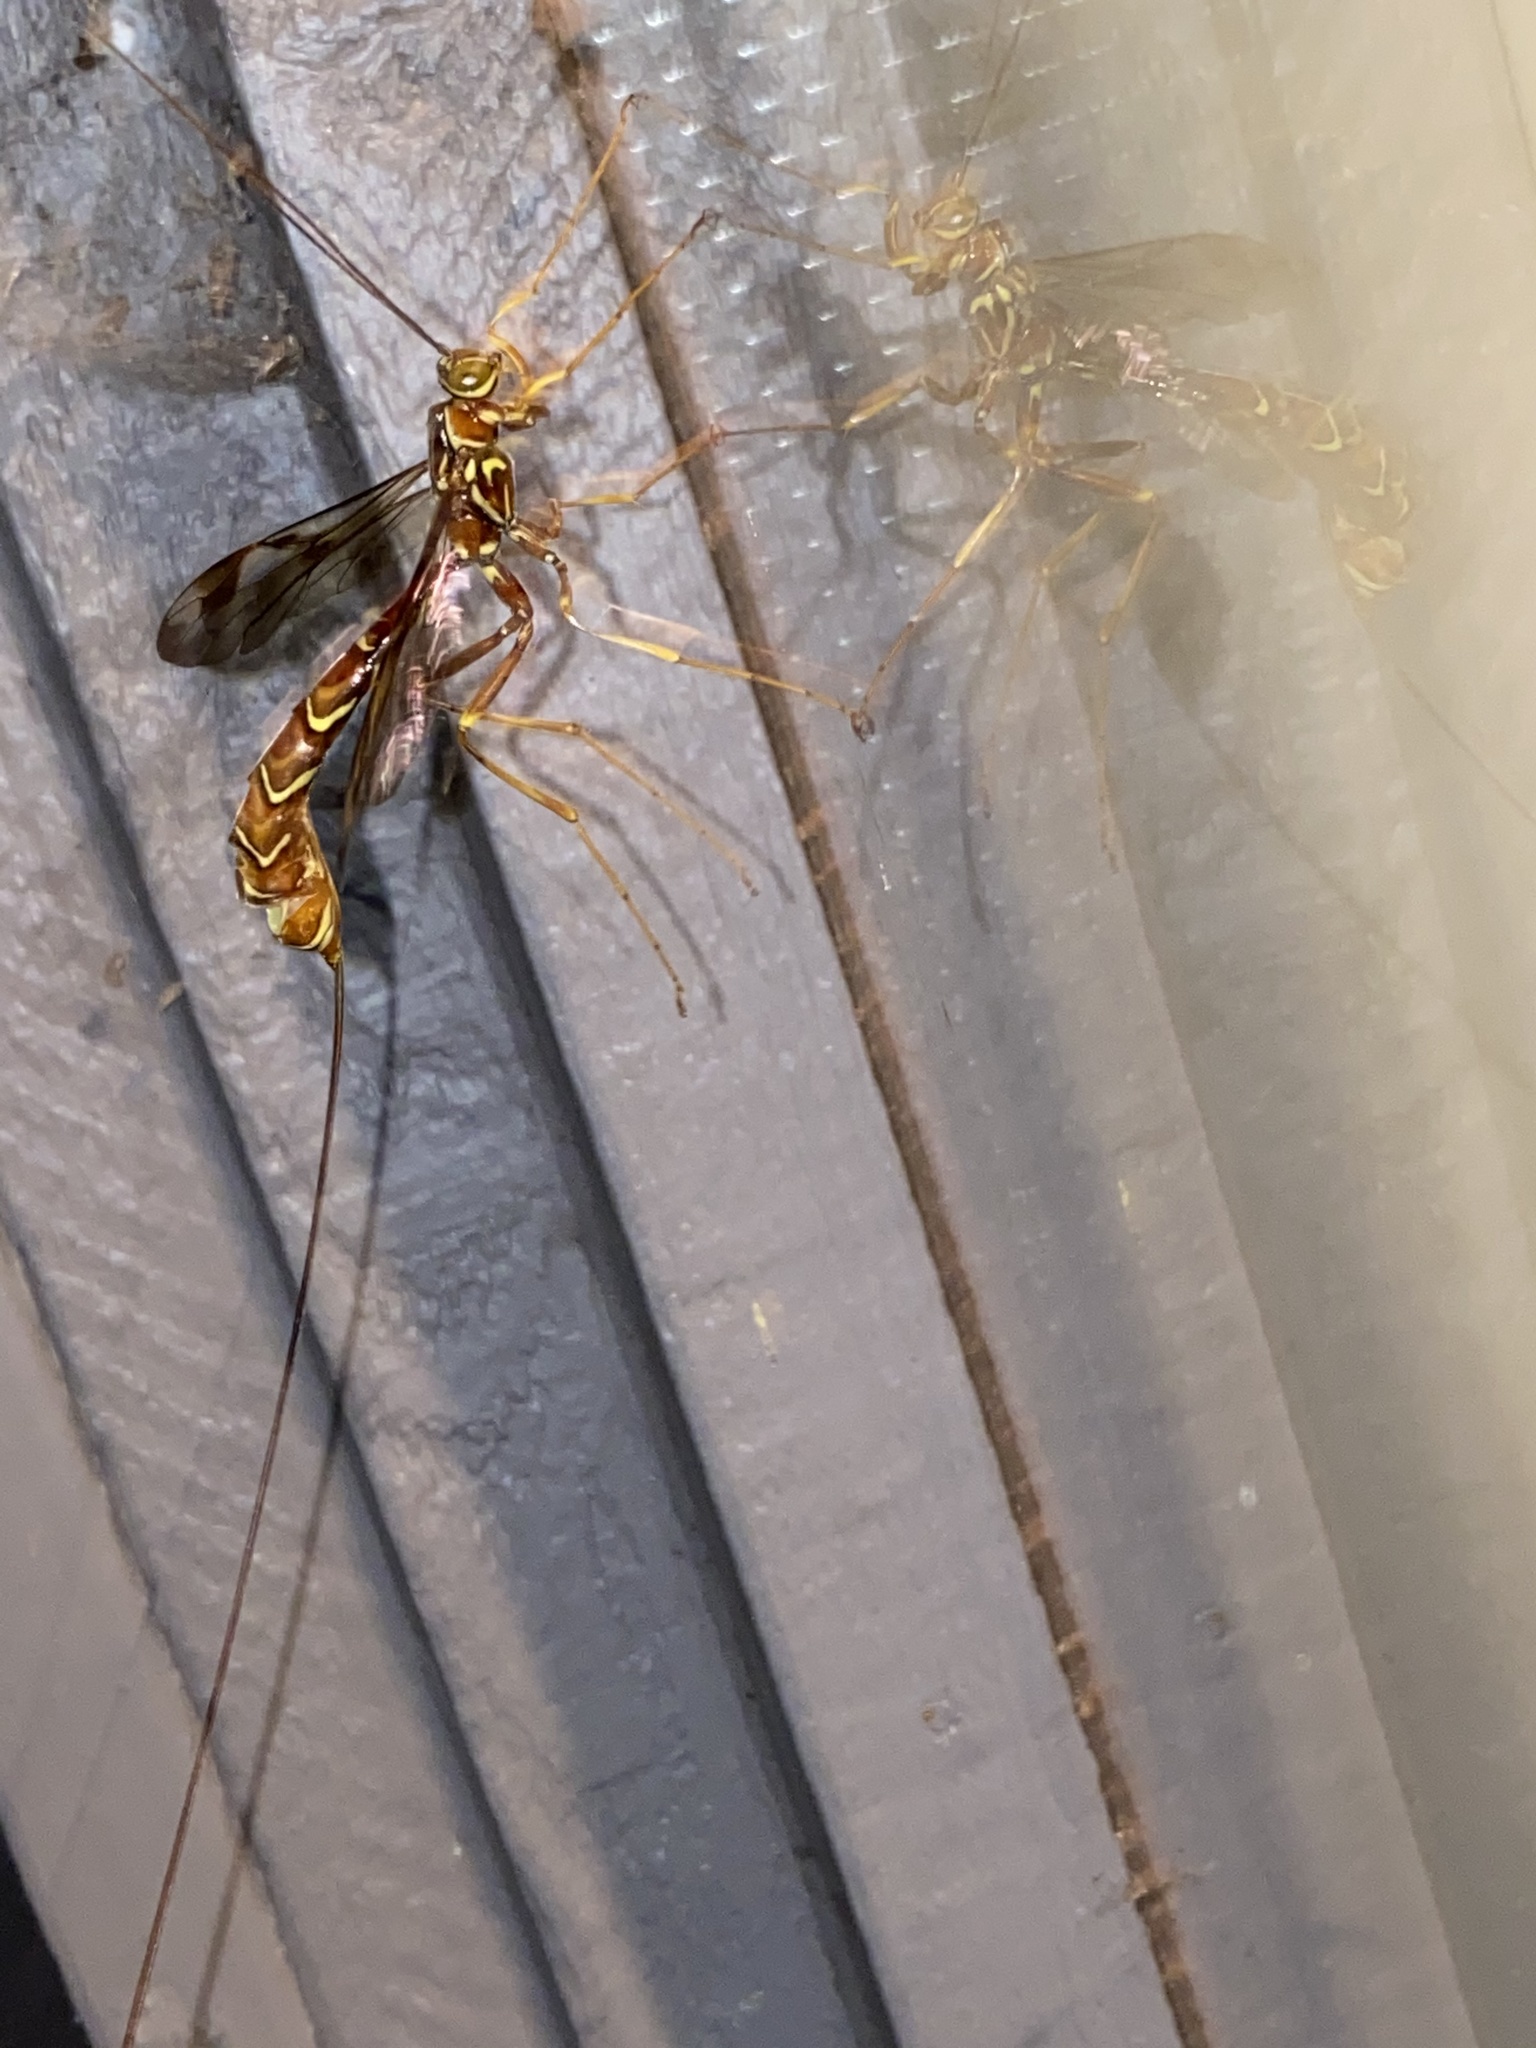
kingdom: Animalia
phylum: Arthropoda
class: Insecta
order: Hymenoptera
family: Ichneumonidae
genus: Megarhyssa
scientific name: Megarhyssa macrura
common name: Long-tailed giant ichneumonid wasp
